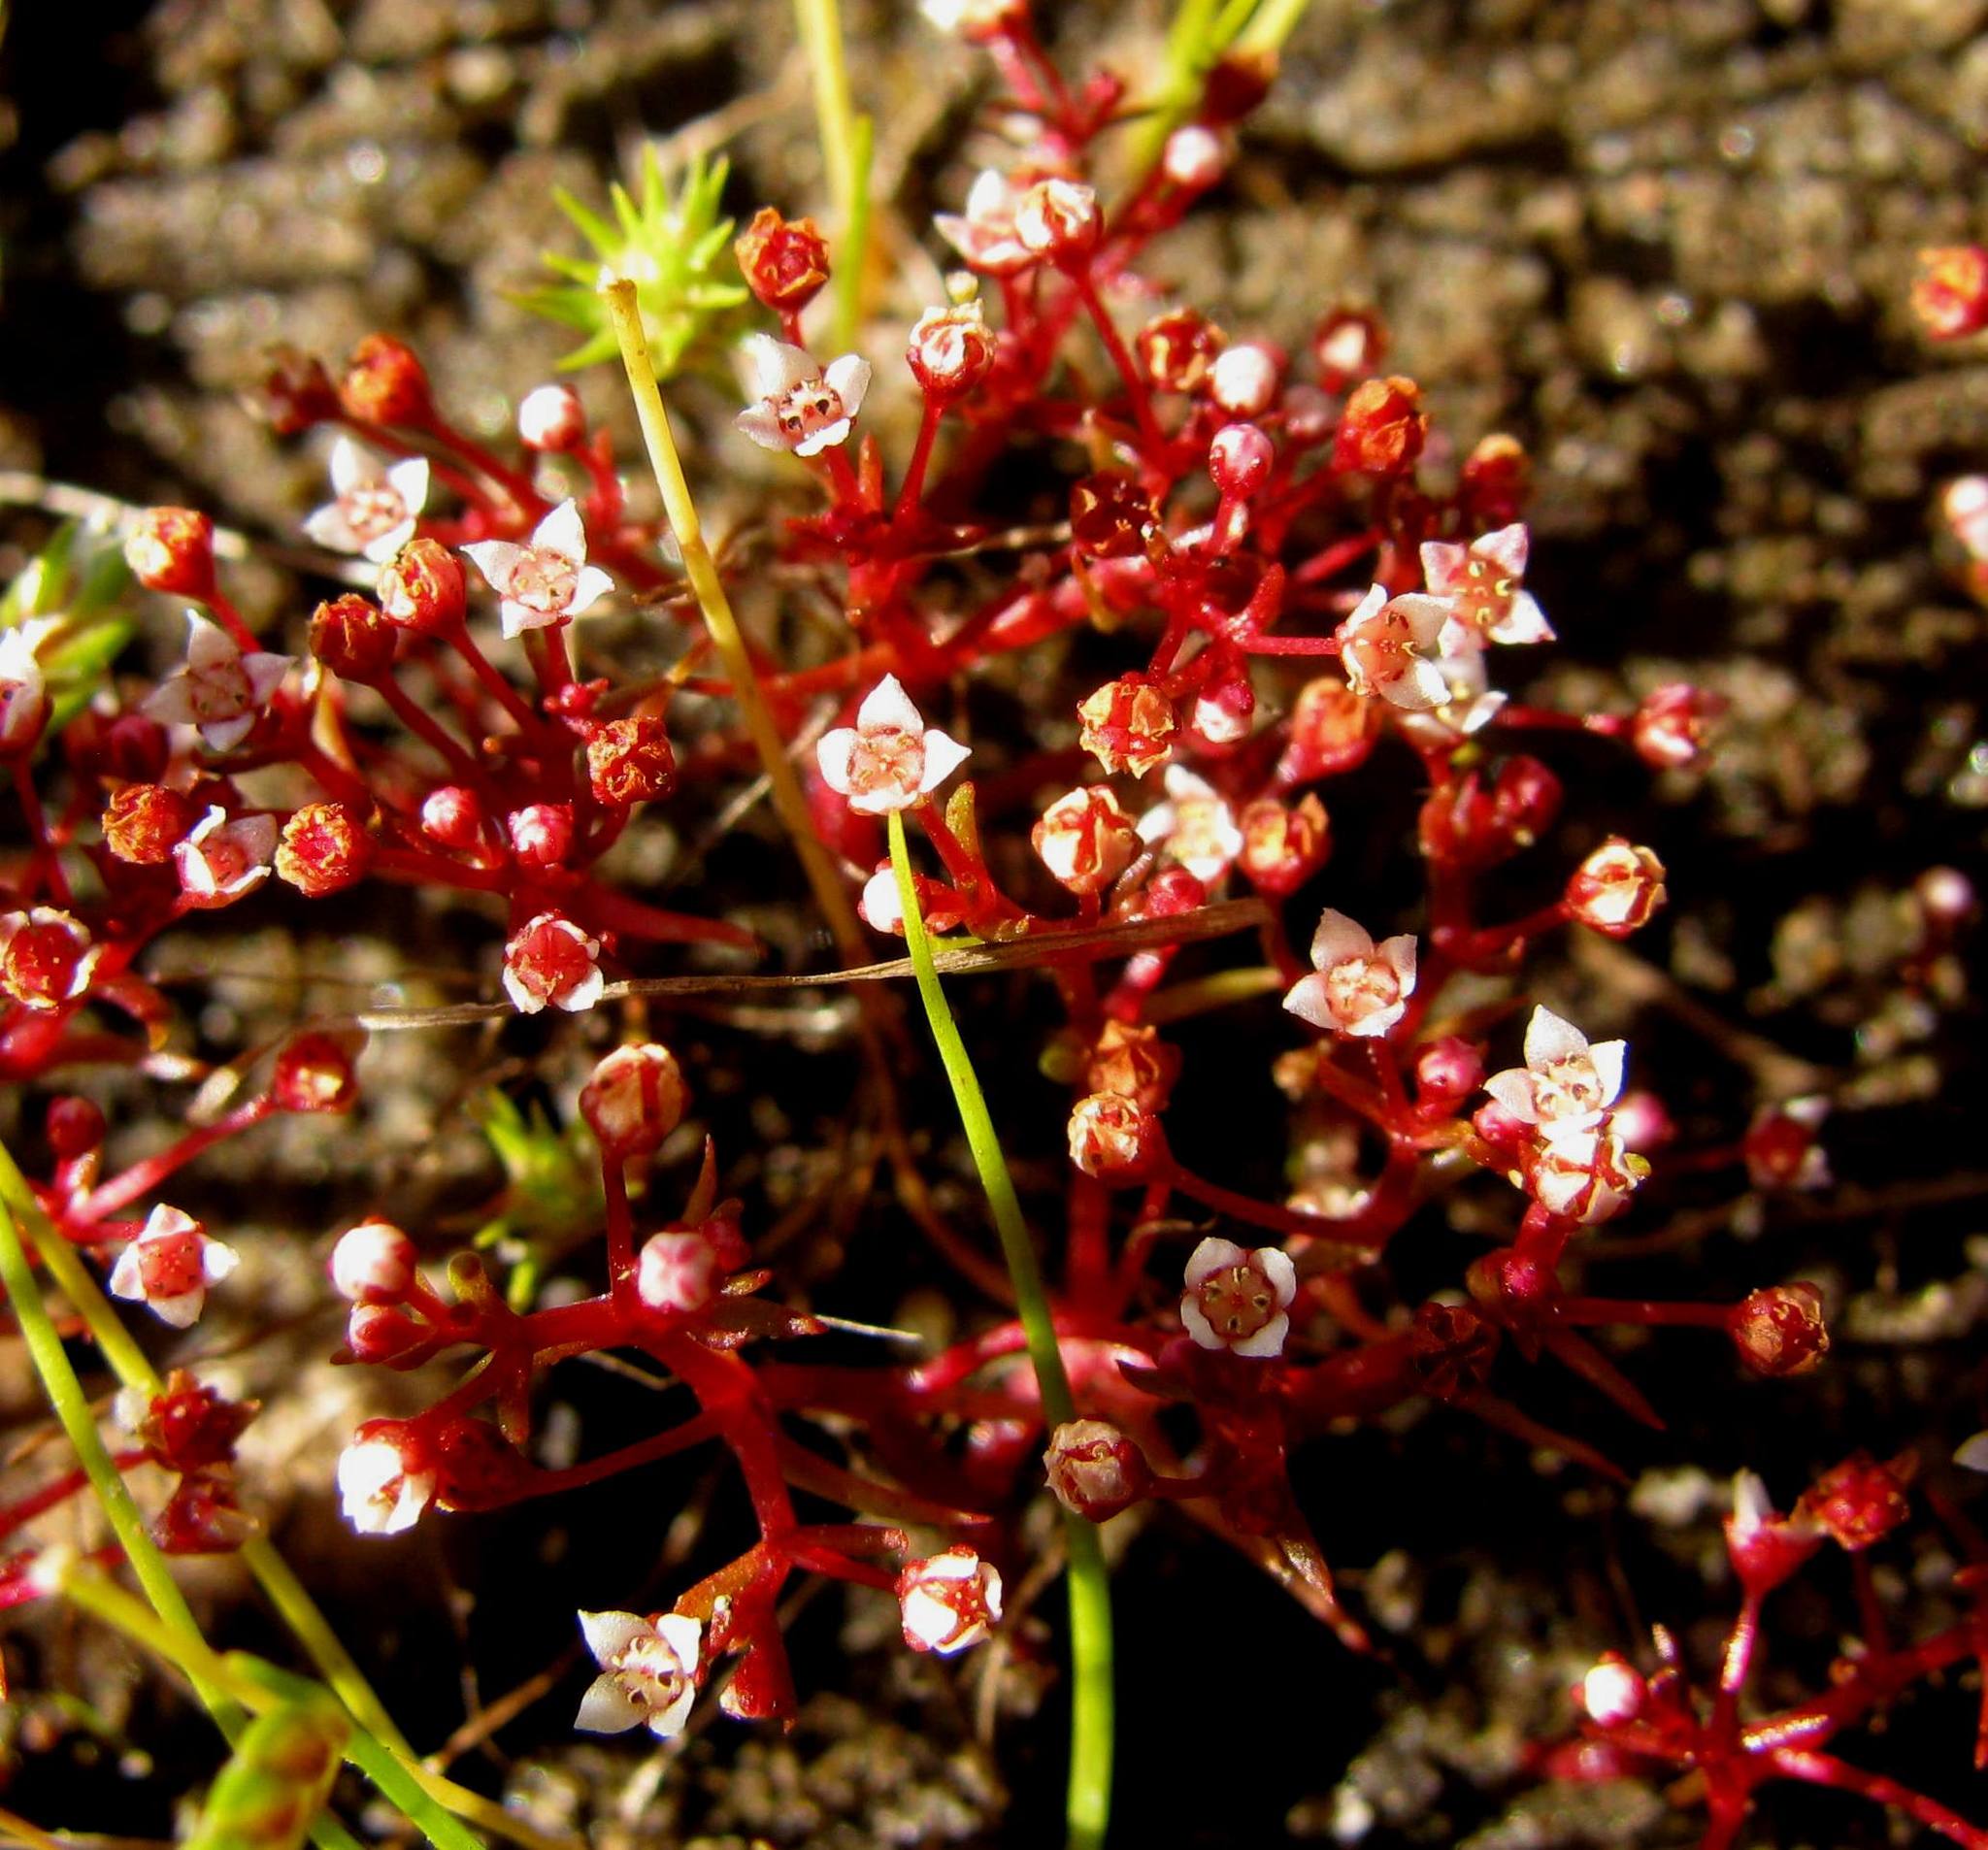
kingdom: Plantae
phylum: Tracheophyta
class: Magnoliopsida
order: Saxifragales
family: Crassulaceae
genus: Crassula
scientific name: Crassula vaillantii
